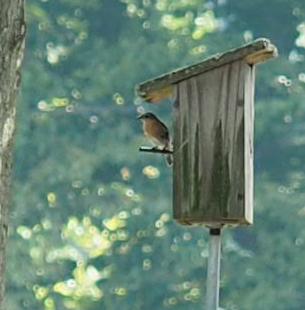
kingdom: Animalia
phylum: Chordata
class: Aves
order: Passeriformes
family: Turdidae
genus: Sialia
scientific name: Sialia sialis
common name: Eastern bluebird
